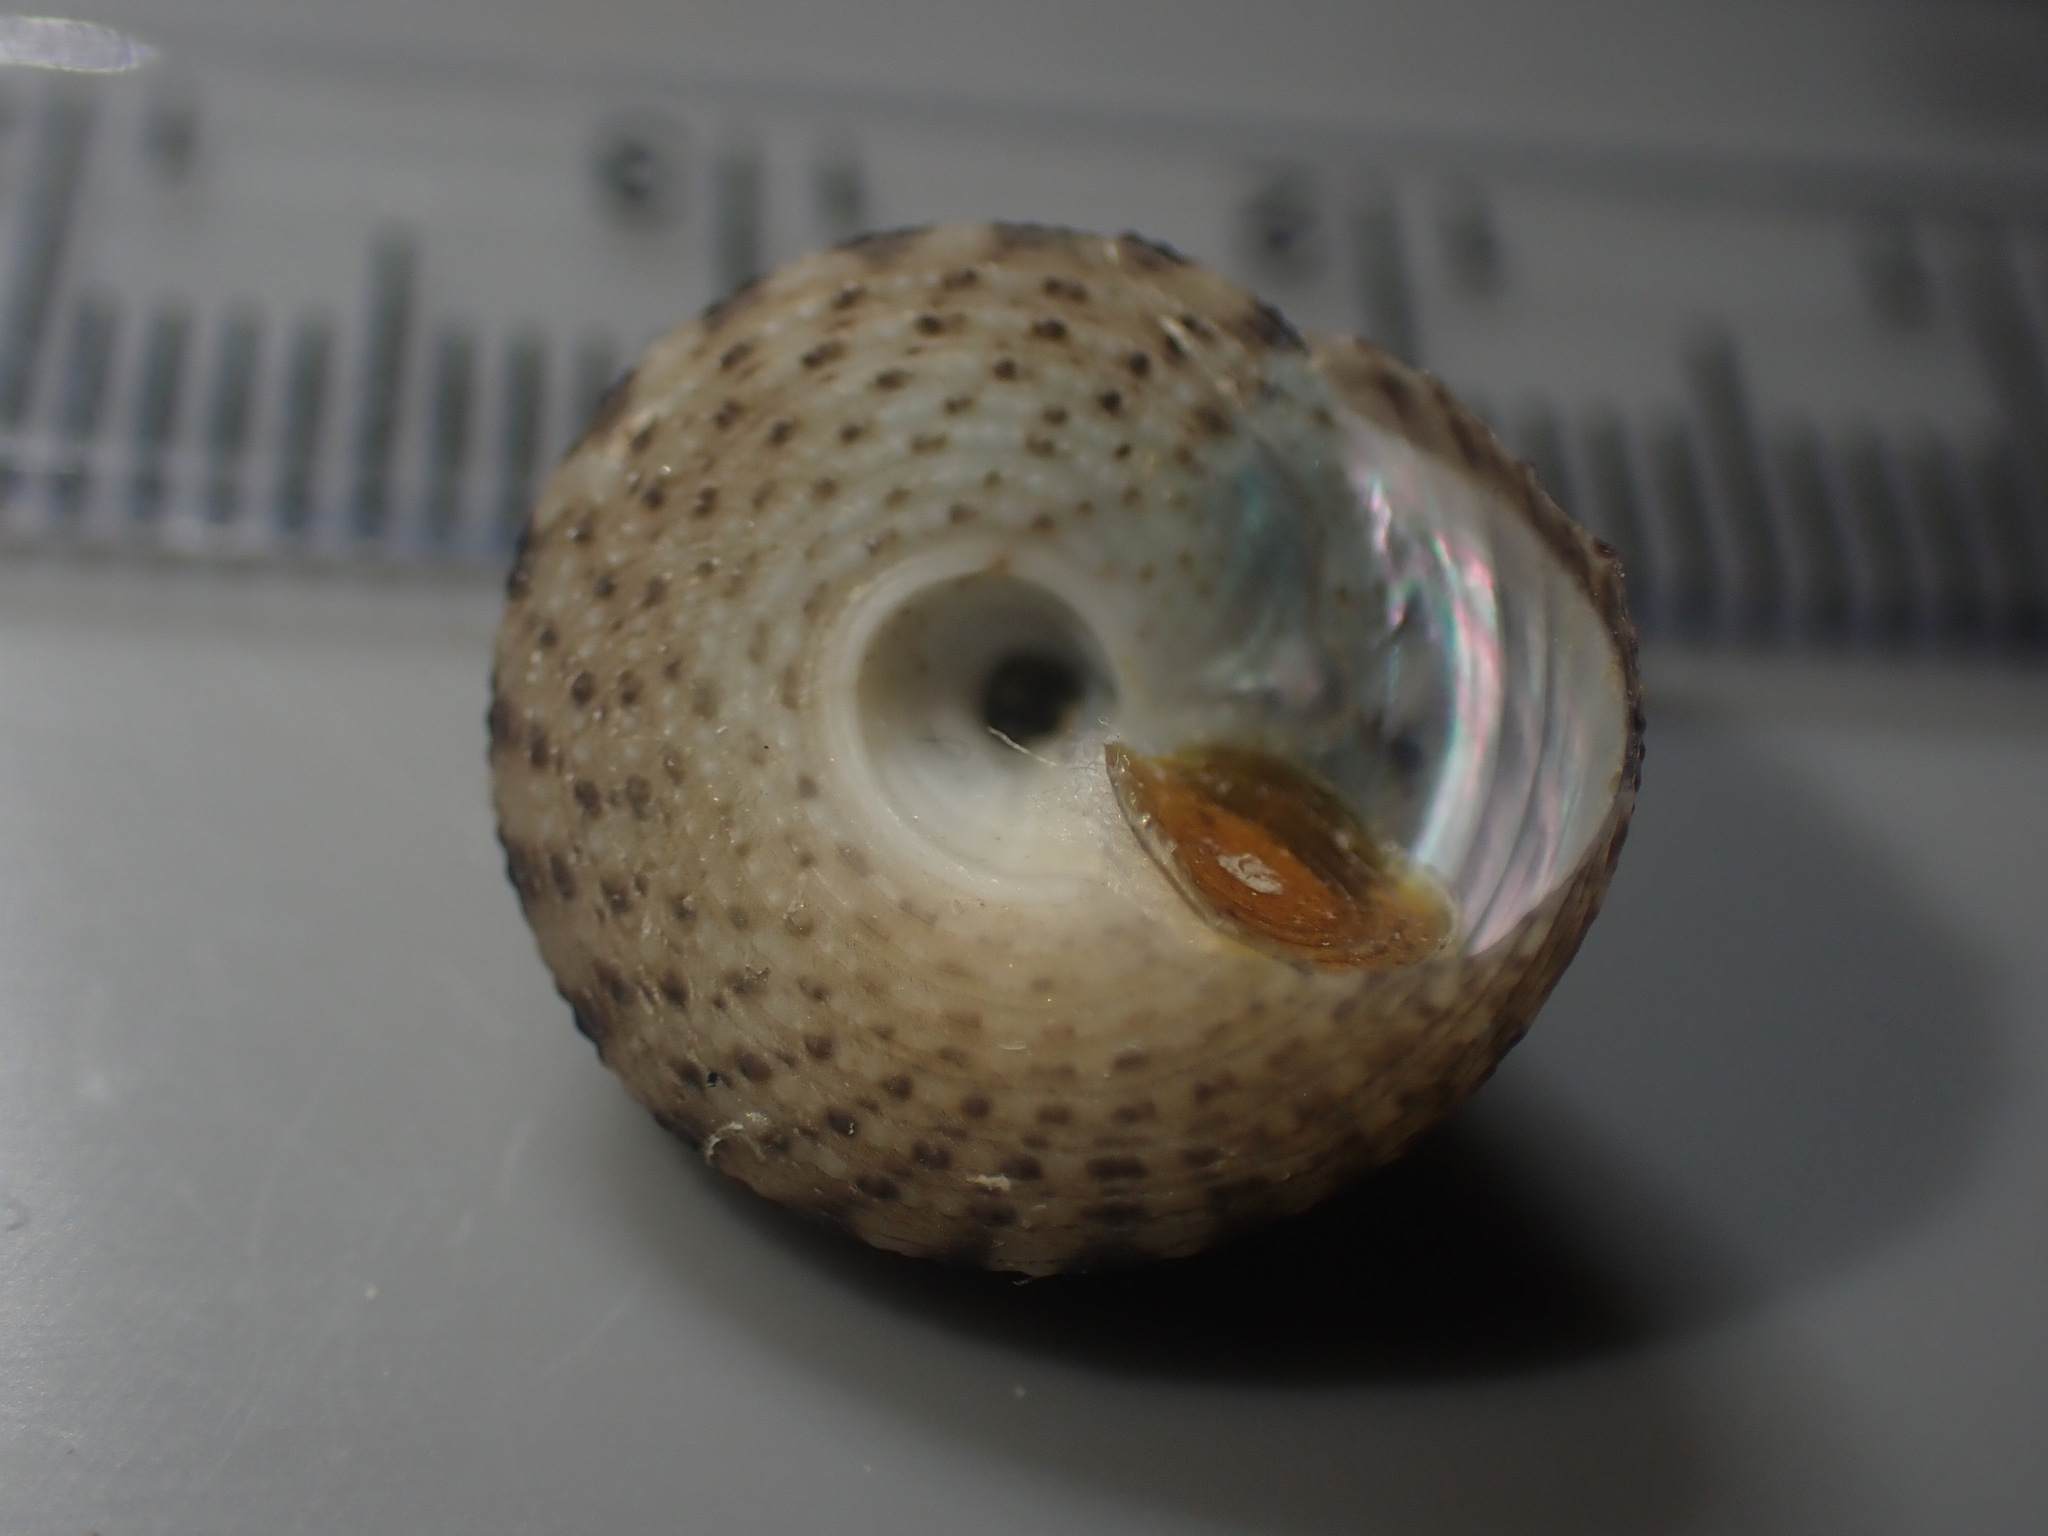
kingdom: Animalia
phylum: Mollusca
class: Gastropoda
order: Trochida
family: Trochidae
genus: Coelotrochus
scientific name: Coelotrochus tiaratus
